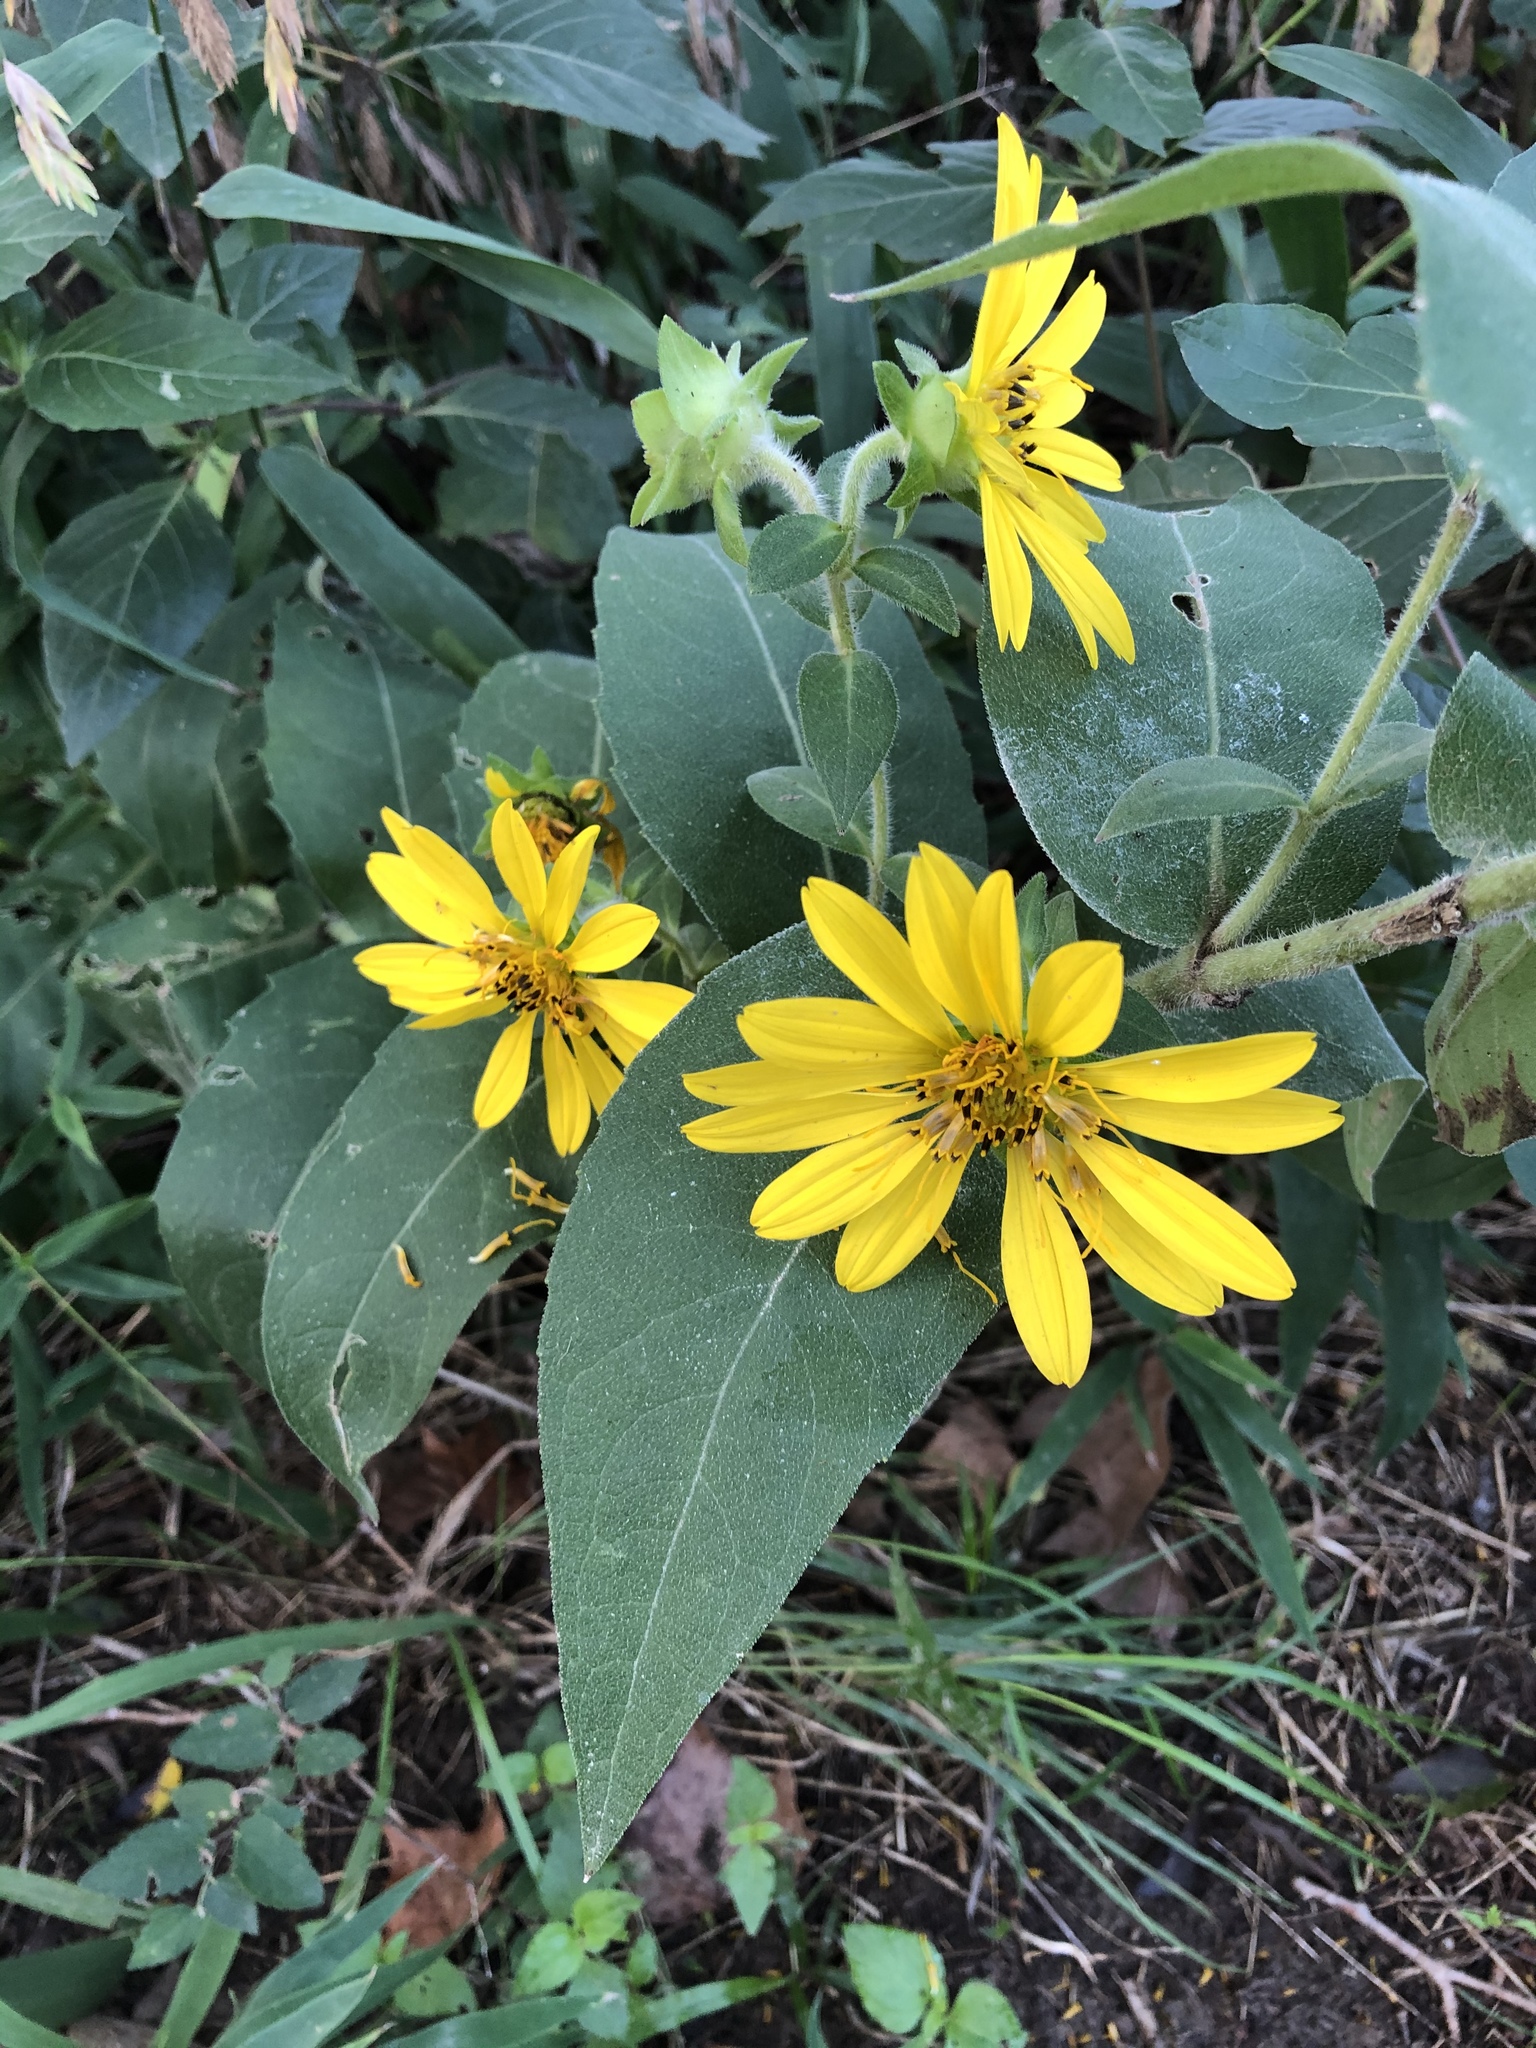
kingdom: Plantae
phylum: Tracheophyta
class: Magnoliopsida
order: Asterales
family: Asteraceae
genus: Silphium
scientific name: Silphium asteriscus
